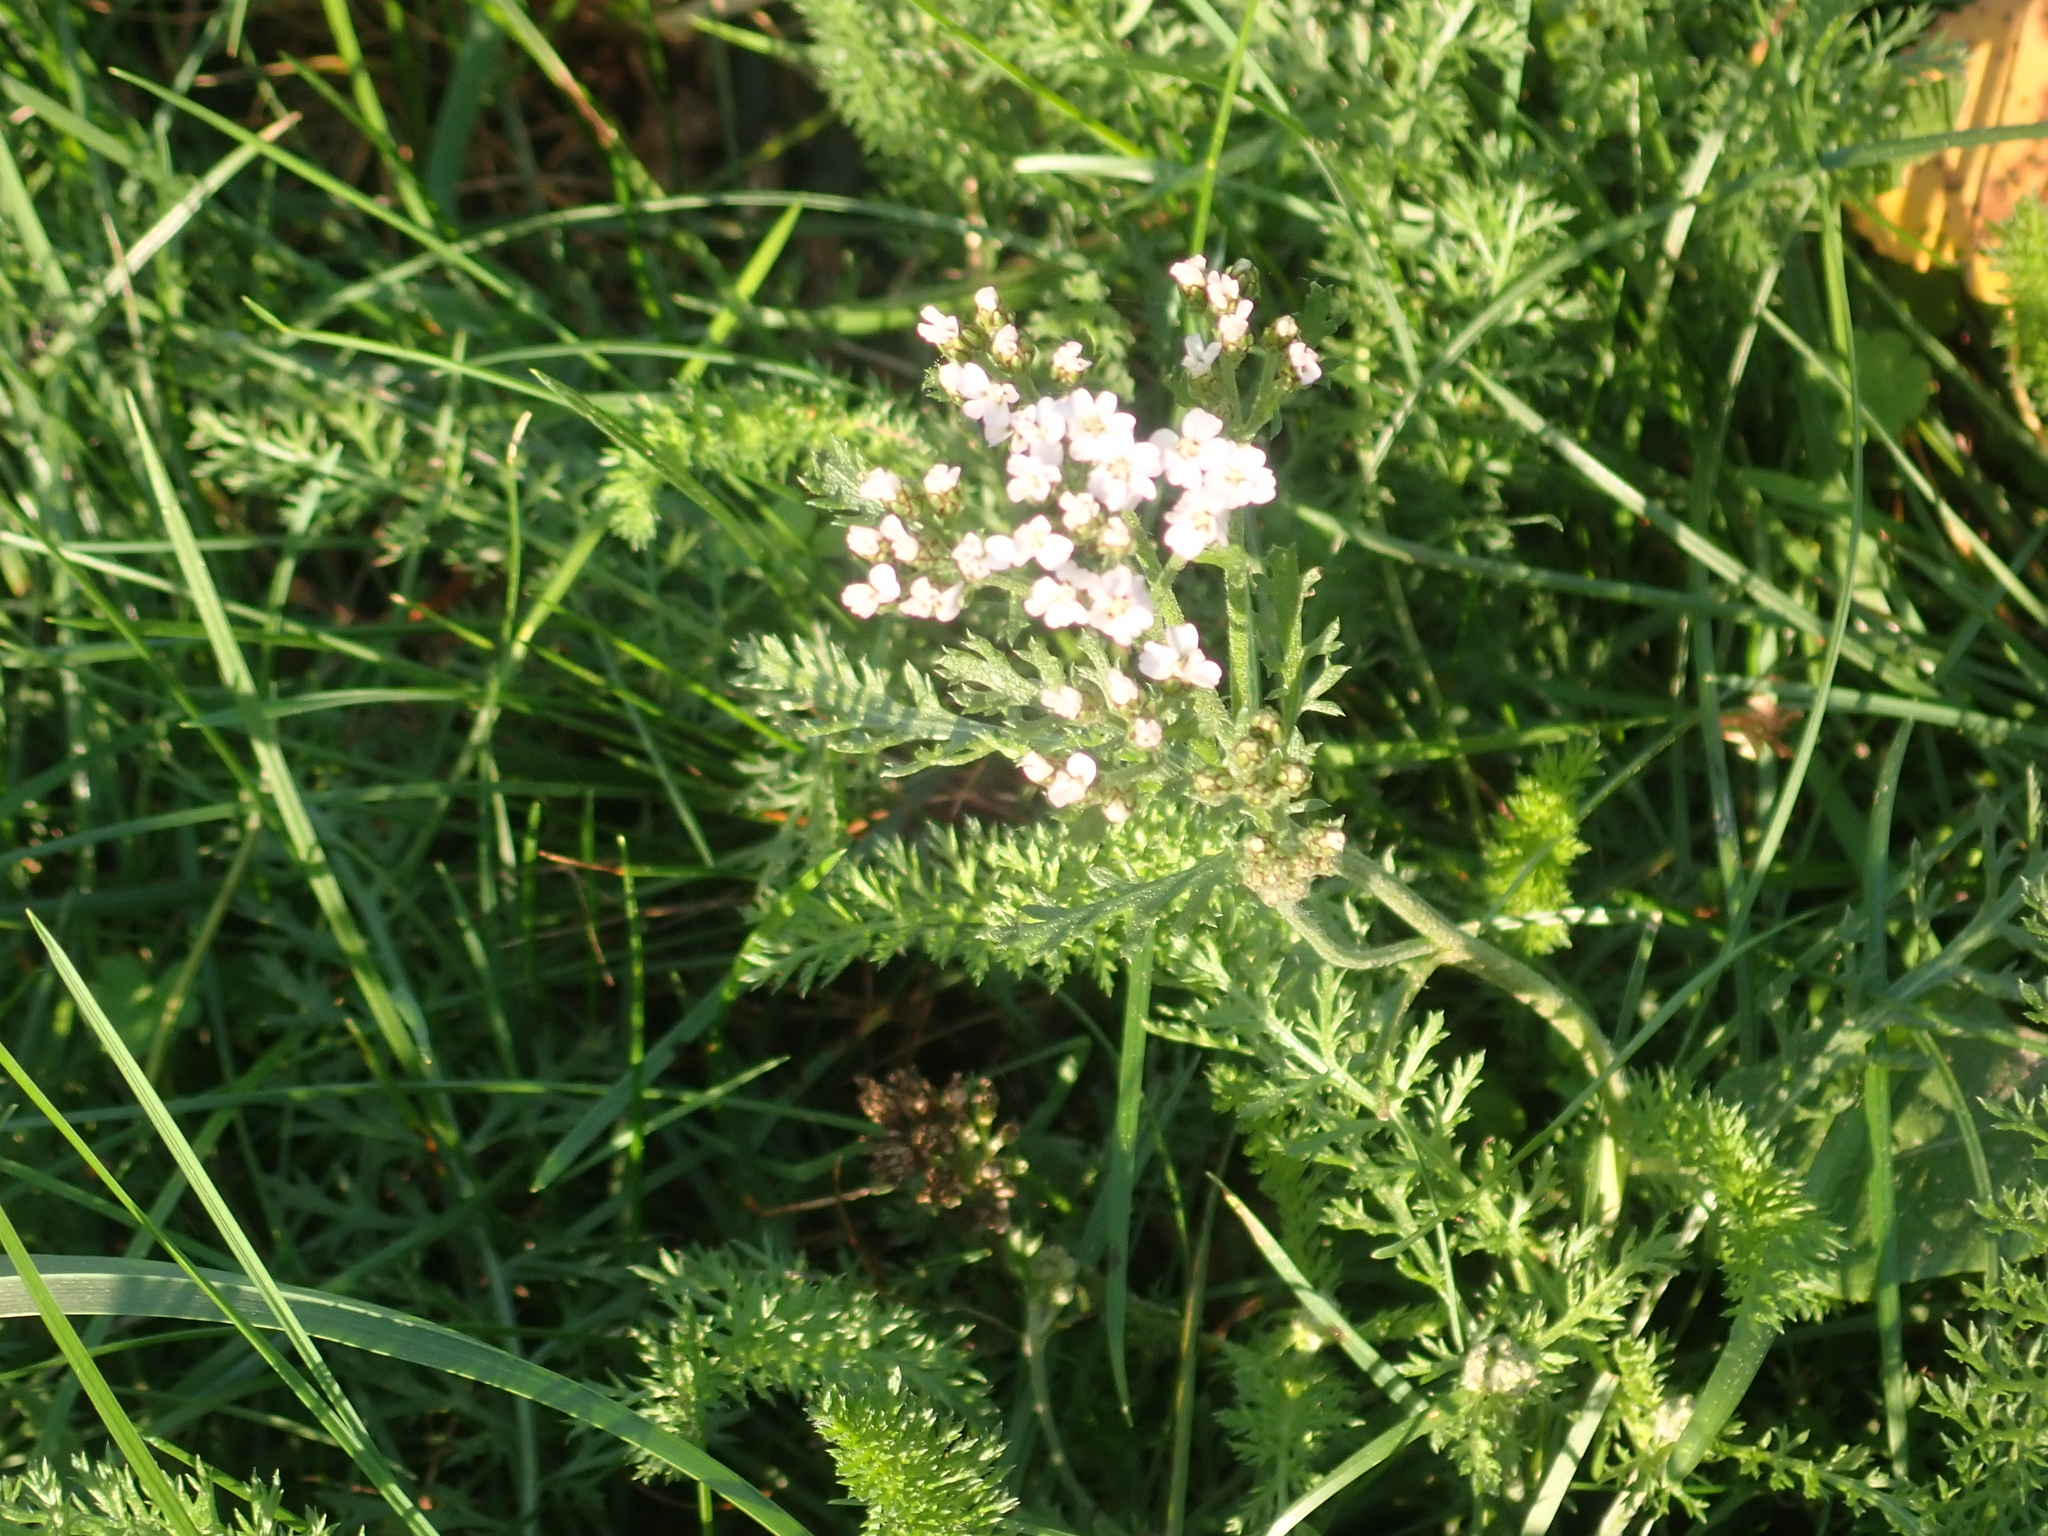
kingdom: Plantae
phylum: Tracheophyta
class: Magnoliopsida
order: Asterales
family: Asteraceae
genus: Achillea
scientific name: Achillea millefolium
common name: Yarrow
